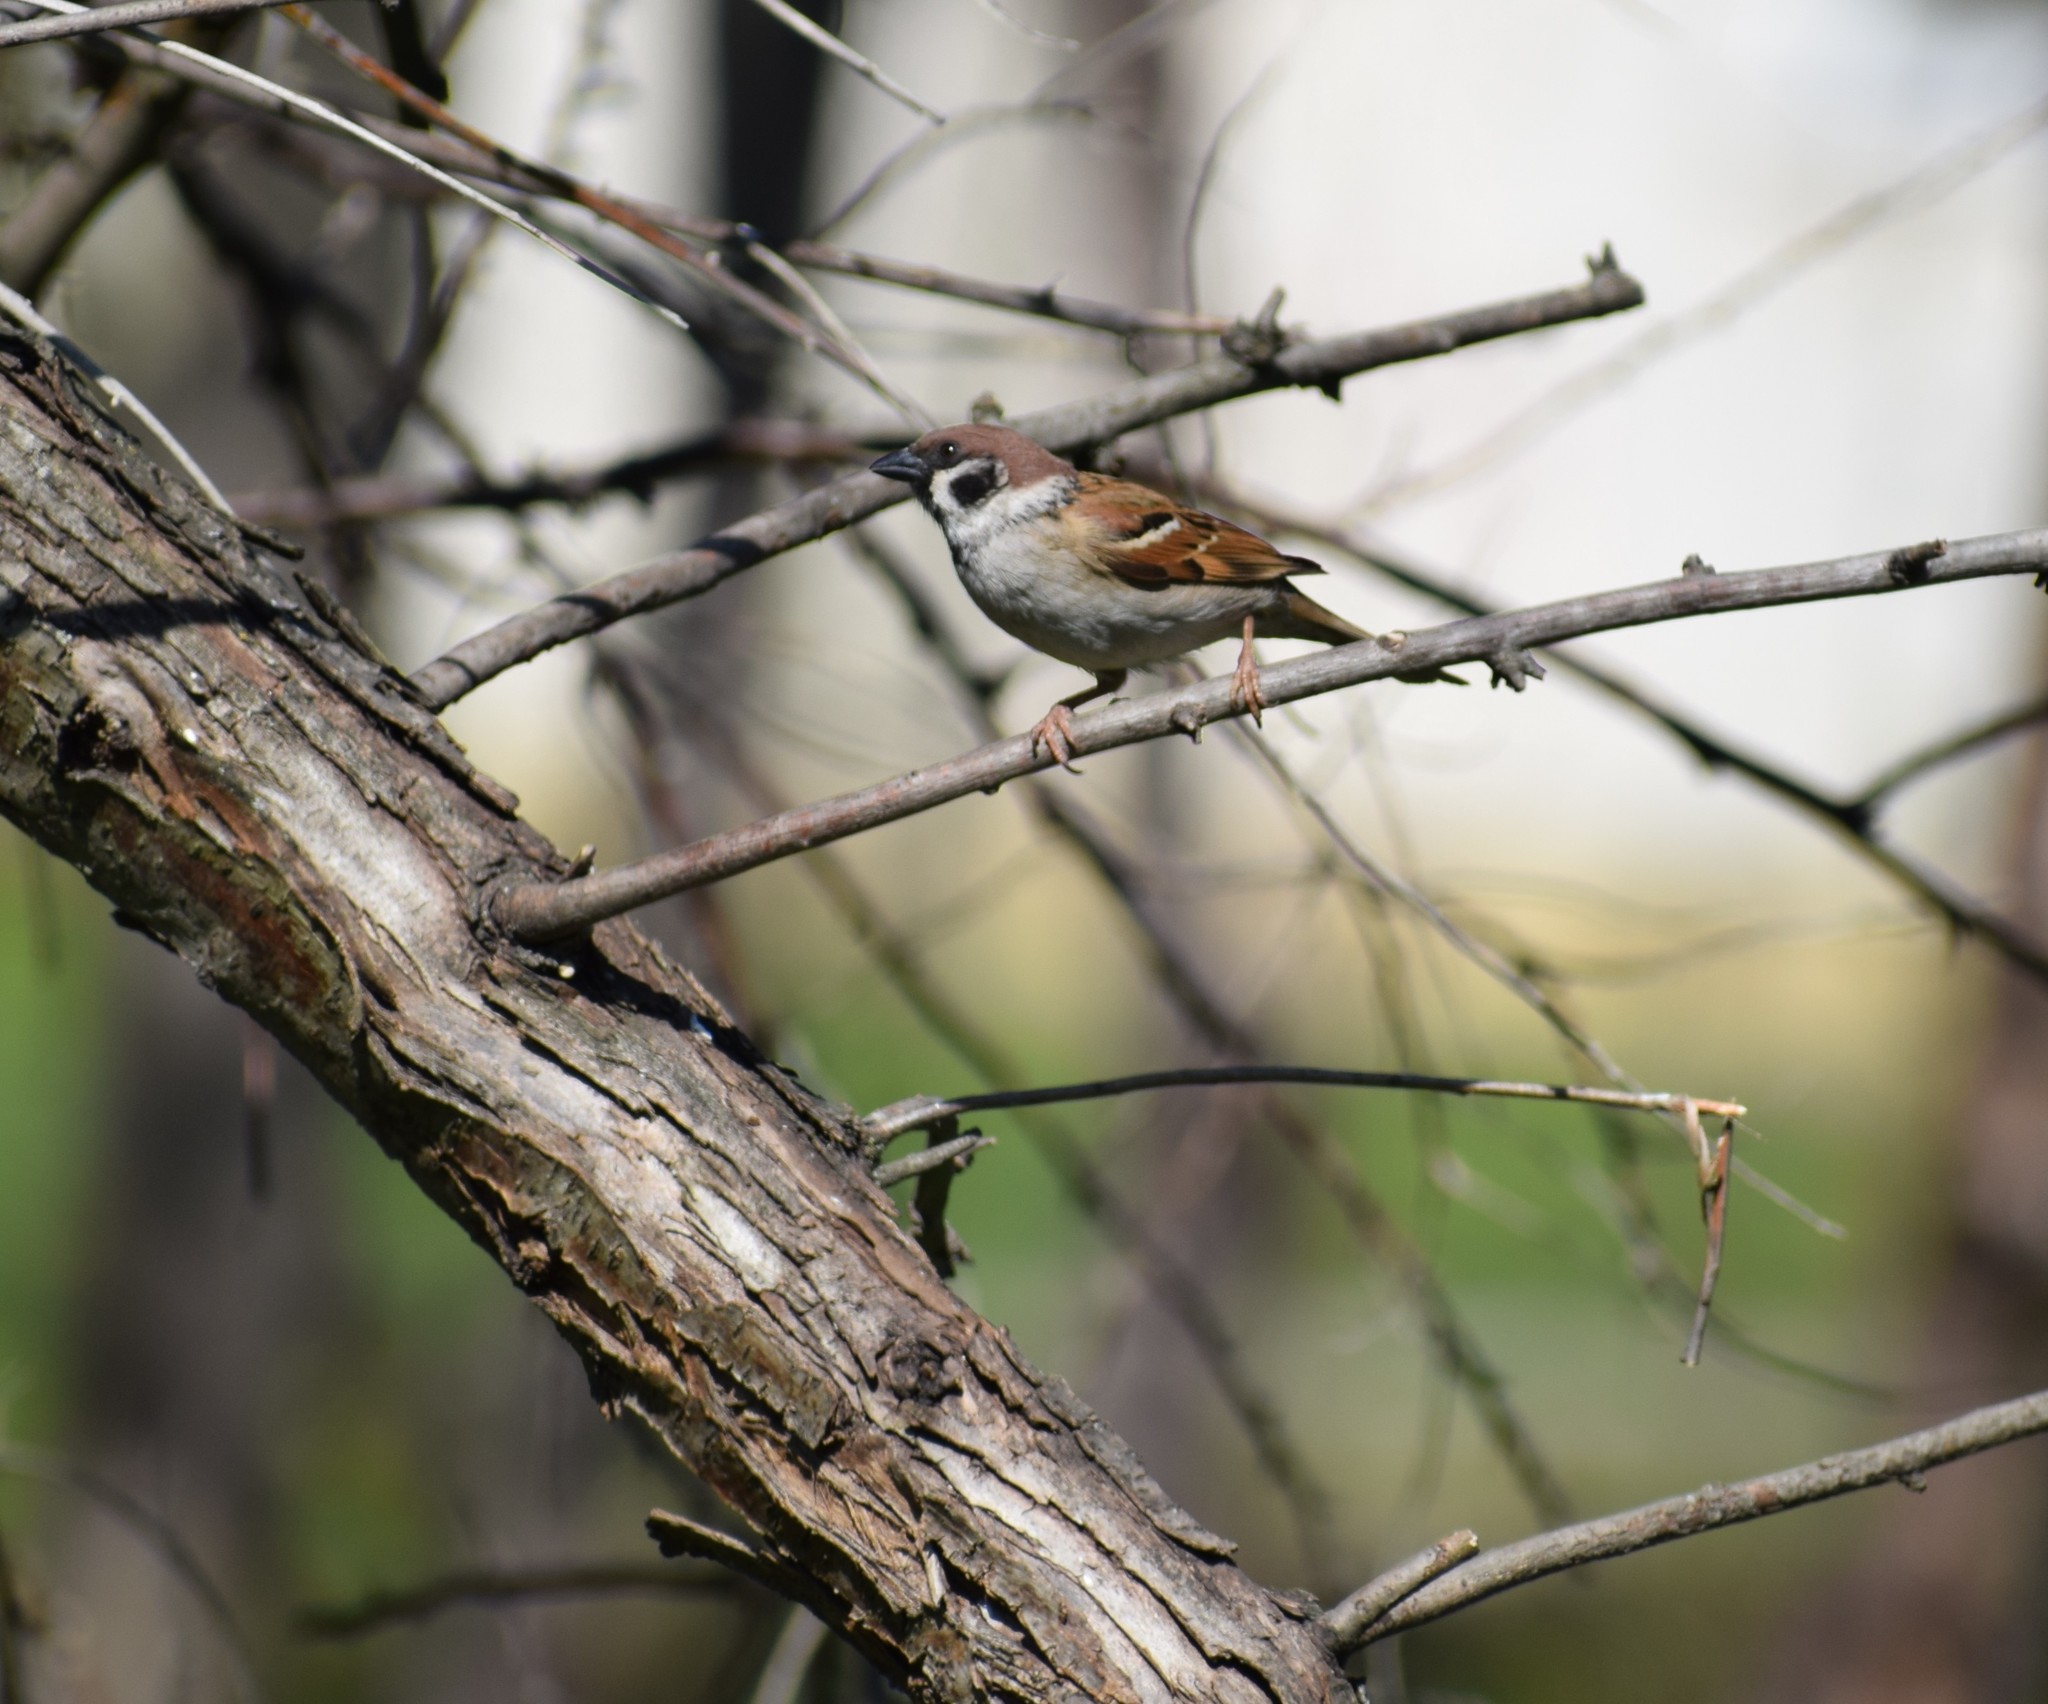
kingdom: Animalia
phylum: Chordata
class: Aves
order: Passeriformes
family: Passeridae
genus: Passer
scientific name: Passer montanus
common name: Eurasian tree sparrow
